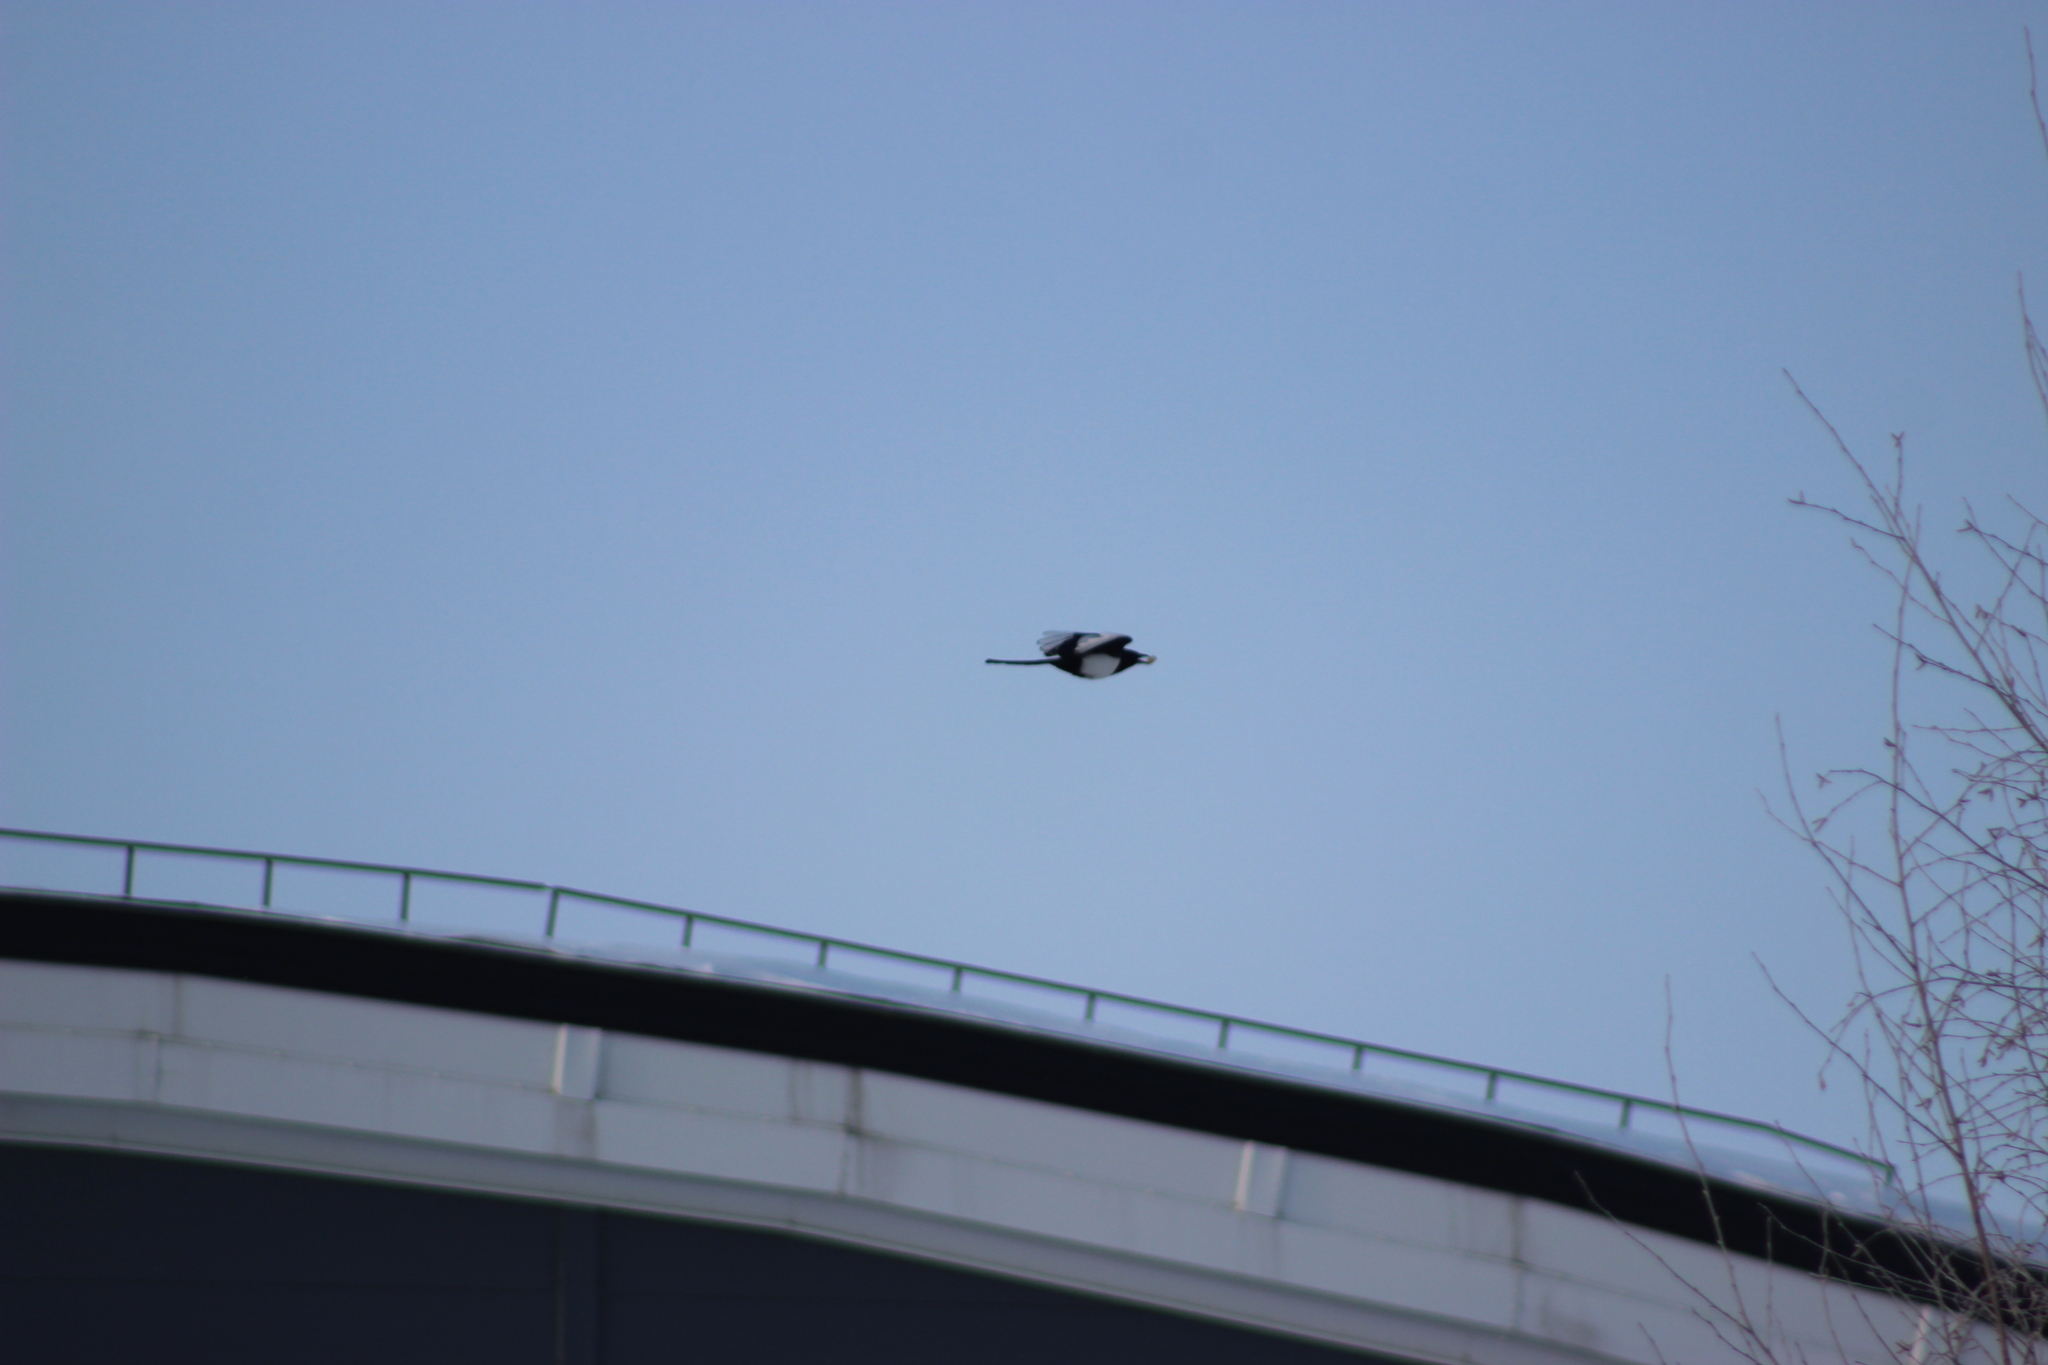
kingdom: Animalia
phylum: Chordata
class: Aves
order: Passeriformes
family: Corvidae
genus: Pica
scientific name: Pica pica
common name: Eurasian magpie
